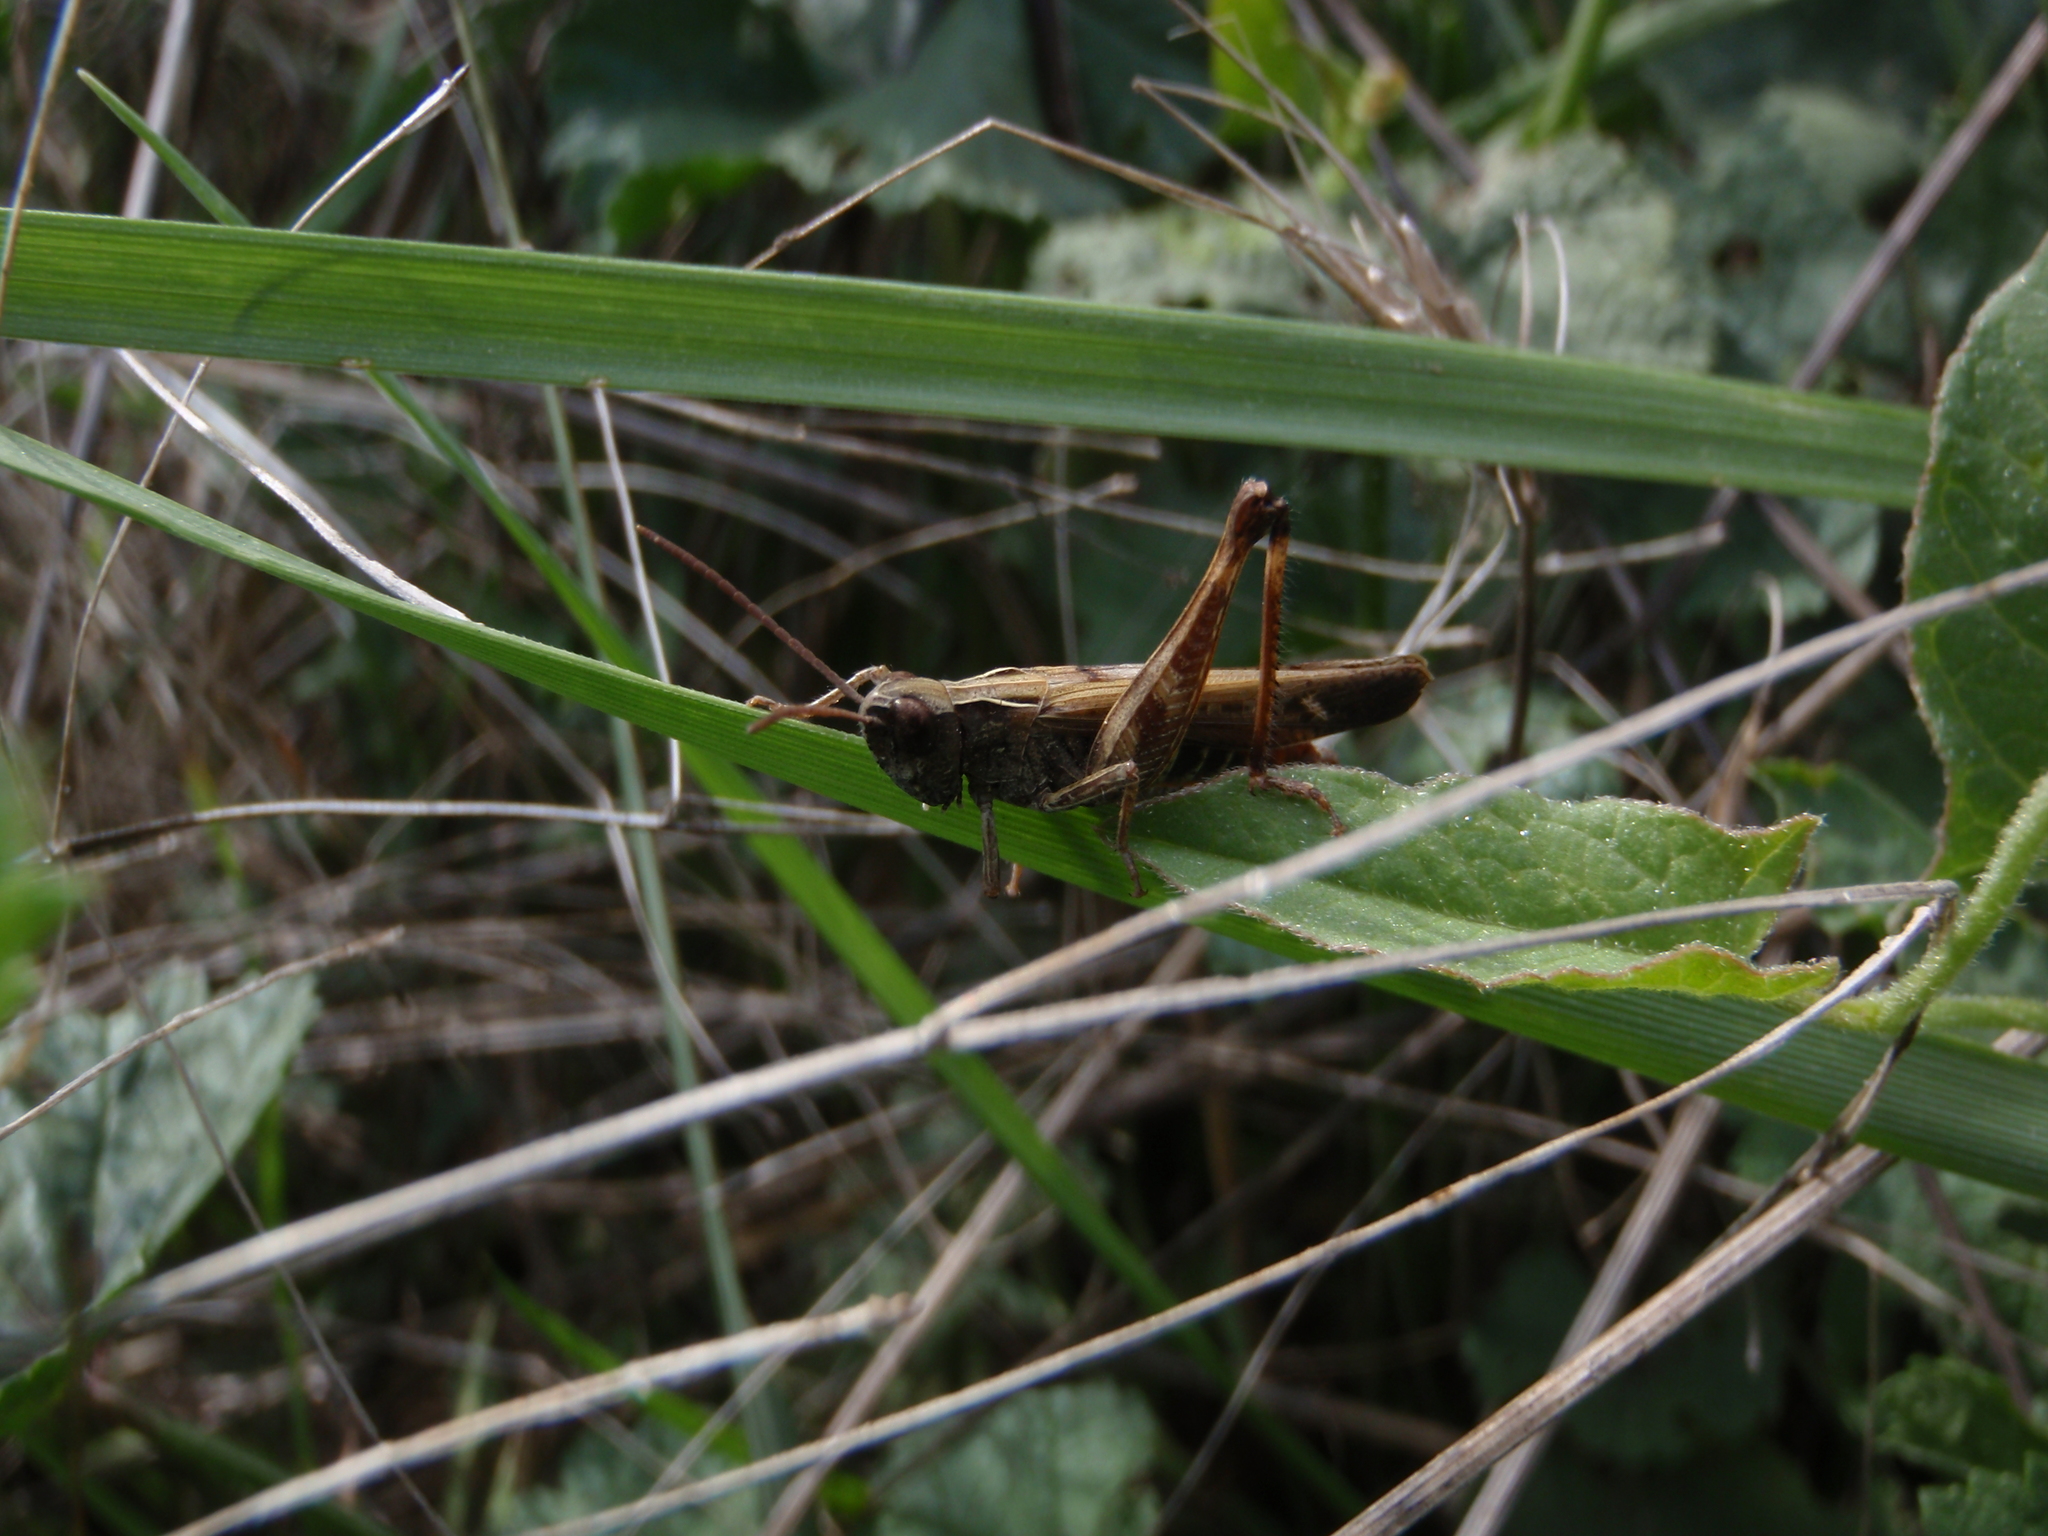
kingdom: Animalia
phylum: Arthropoda
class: Insecta
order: Orthoptera
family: Acrididae
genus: Omocestus
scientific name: Omocestus rufipes
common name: Woodland grasshopper
